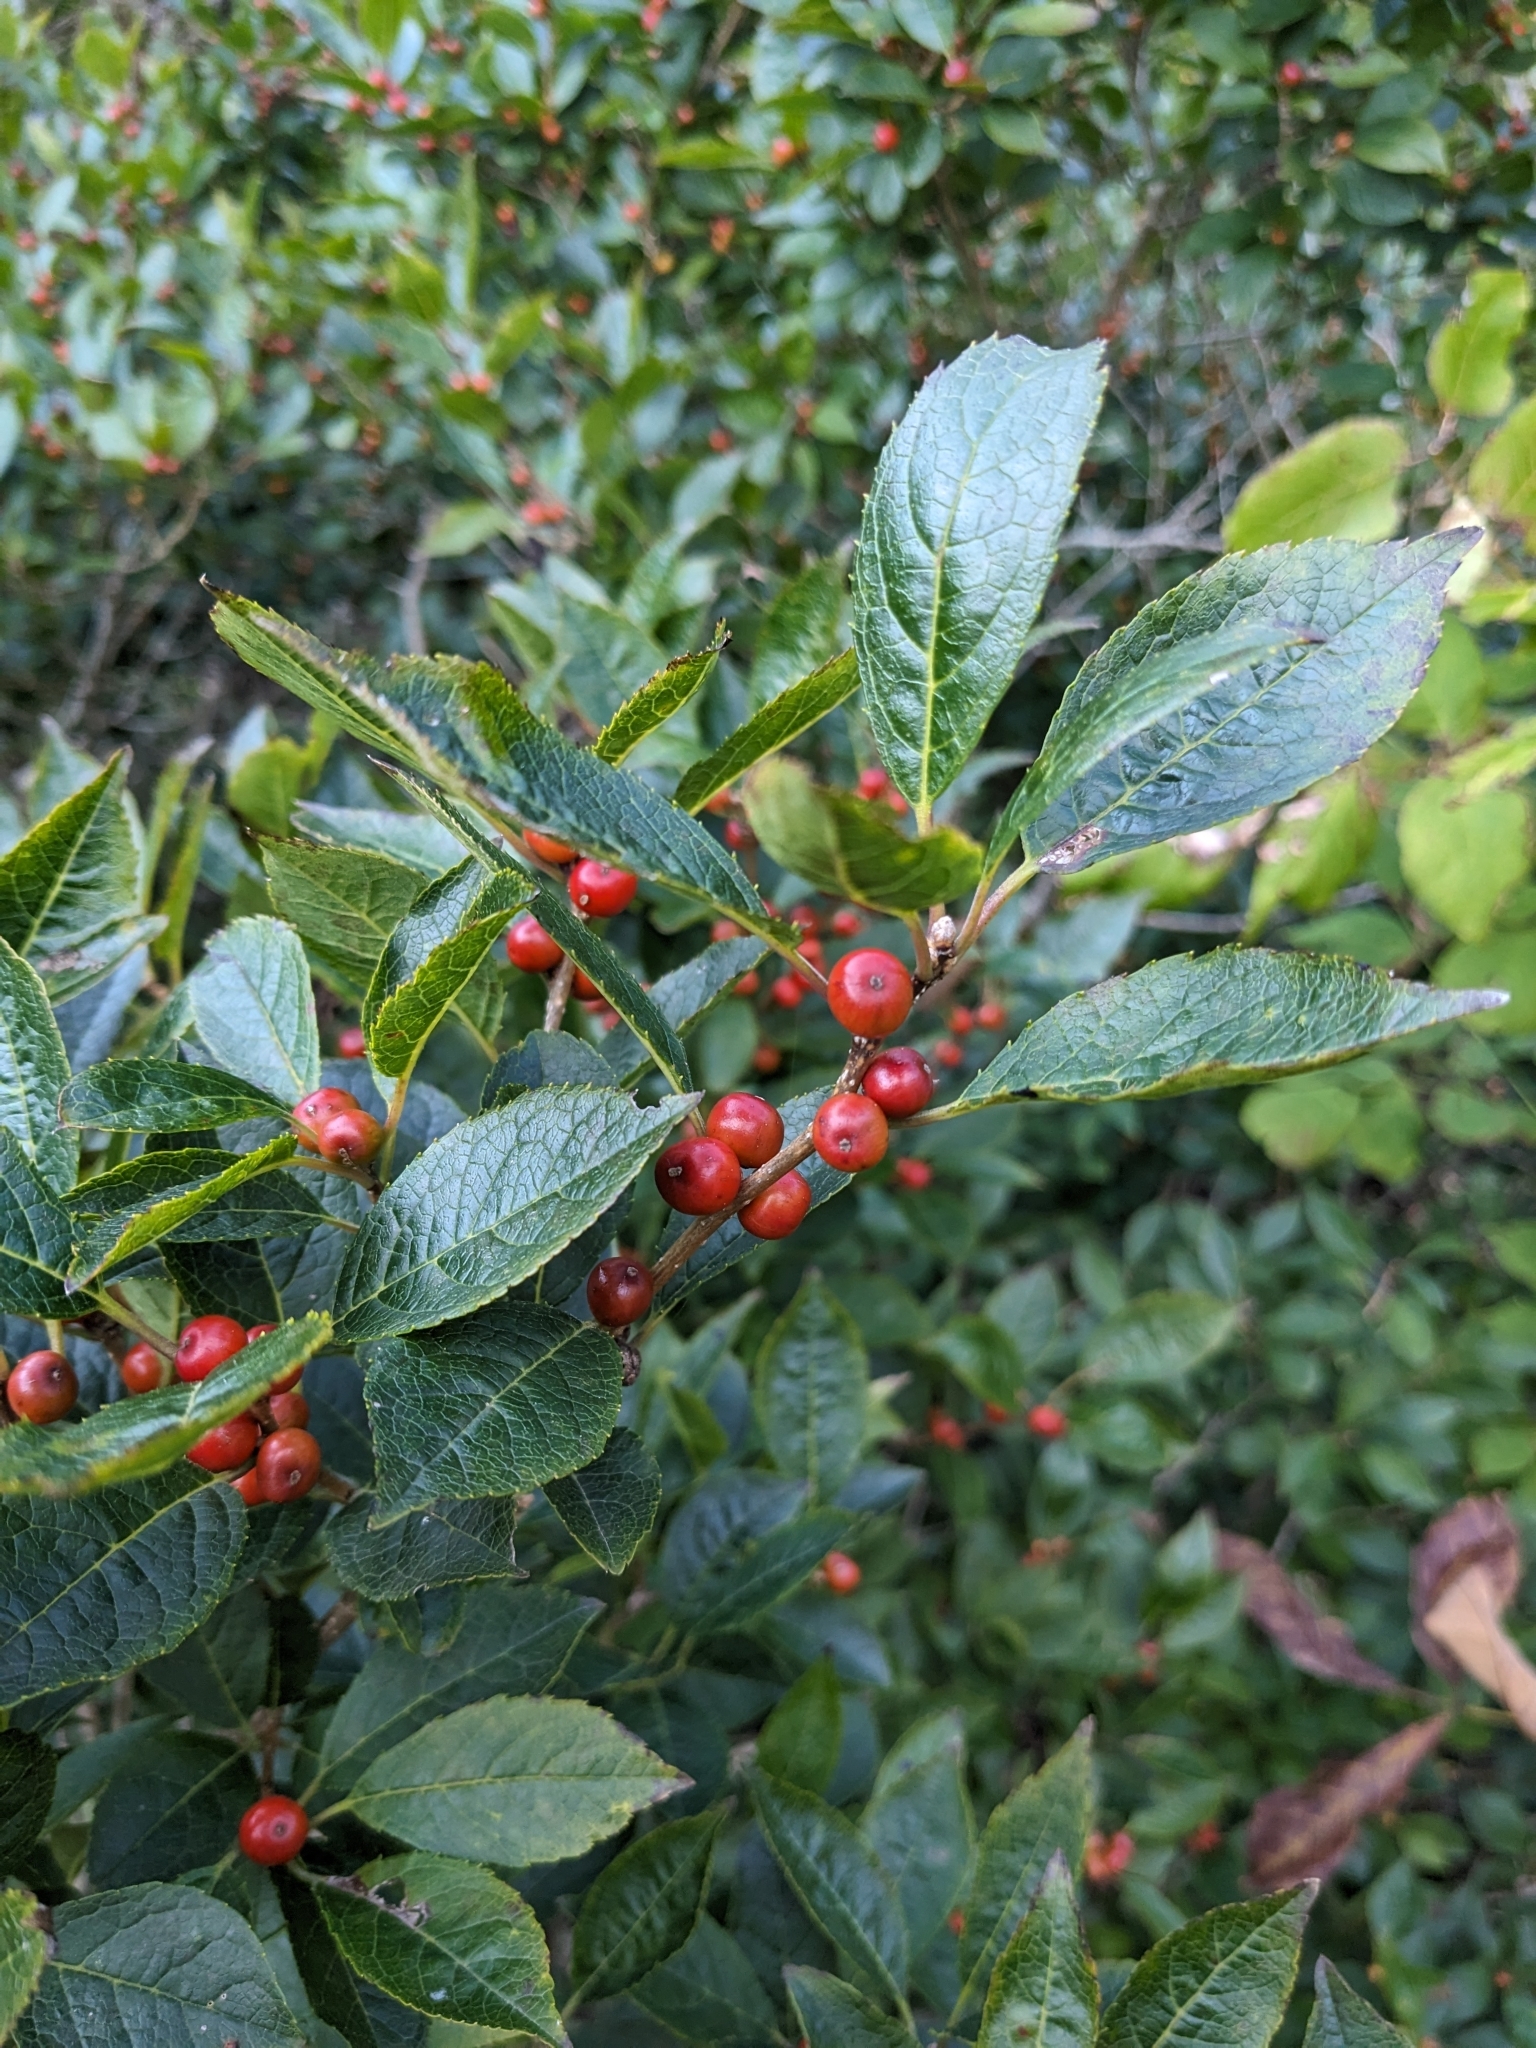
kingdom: Plantae
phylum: Tracheophyta
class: Magnoliopsida
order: Aquifoliales
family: Aquifoliaceae
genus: Ilex
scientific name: Ilex verticillata
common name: Virginia winterberry
